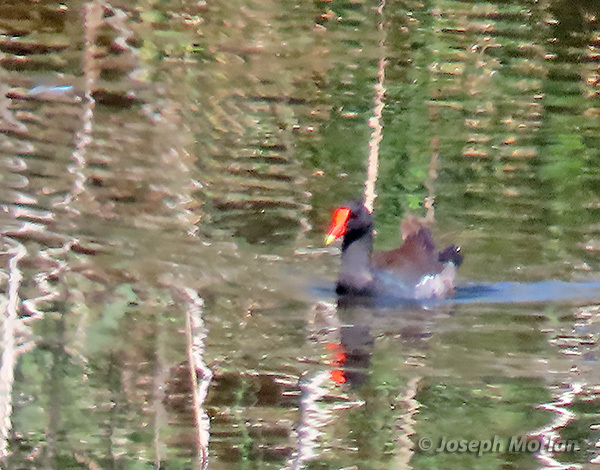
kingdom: Animalia
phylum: Chordata
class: Aves
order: Gruiformes
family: Rallidae
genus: Gallinula
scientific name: Gallinula chloropus
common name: Common moorhen
